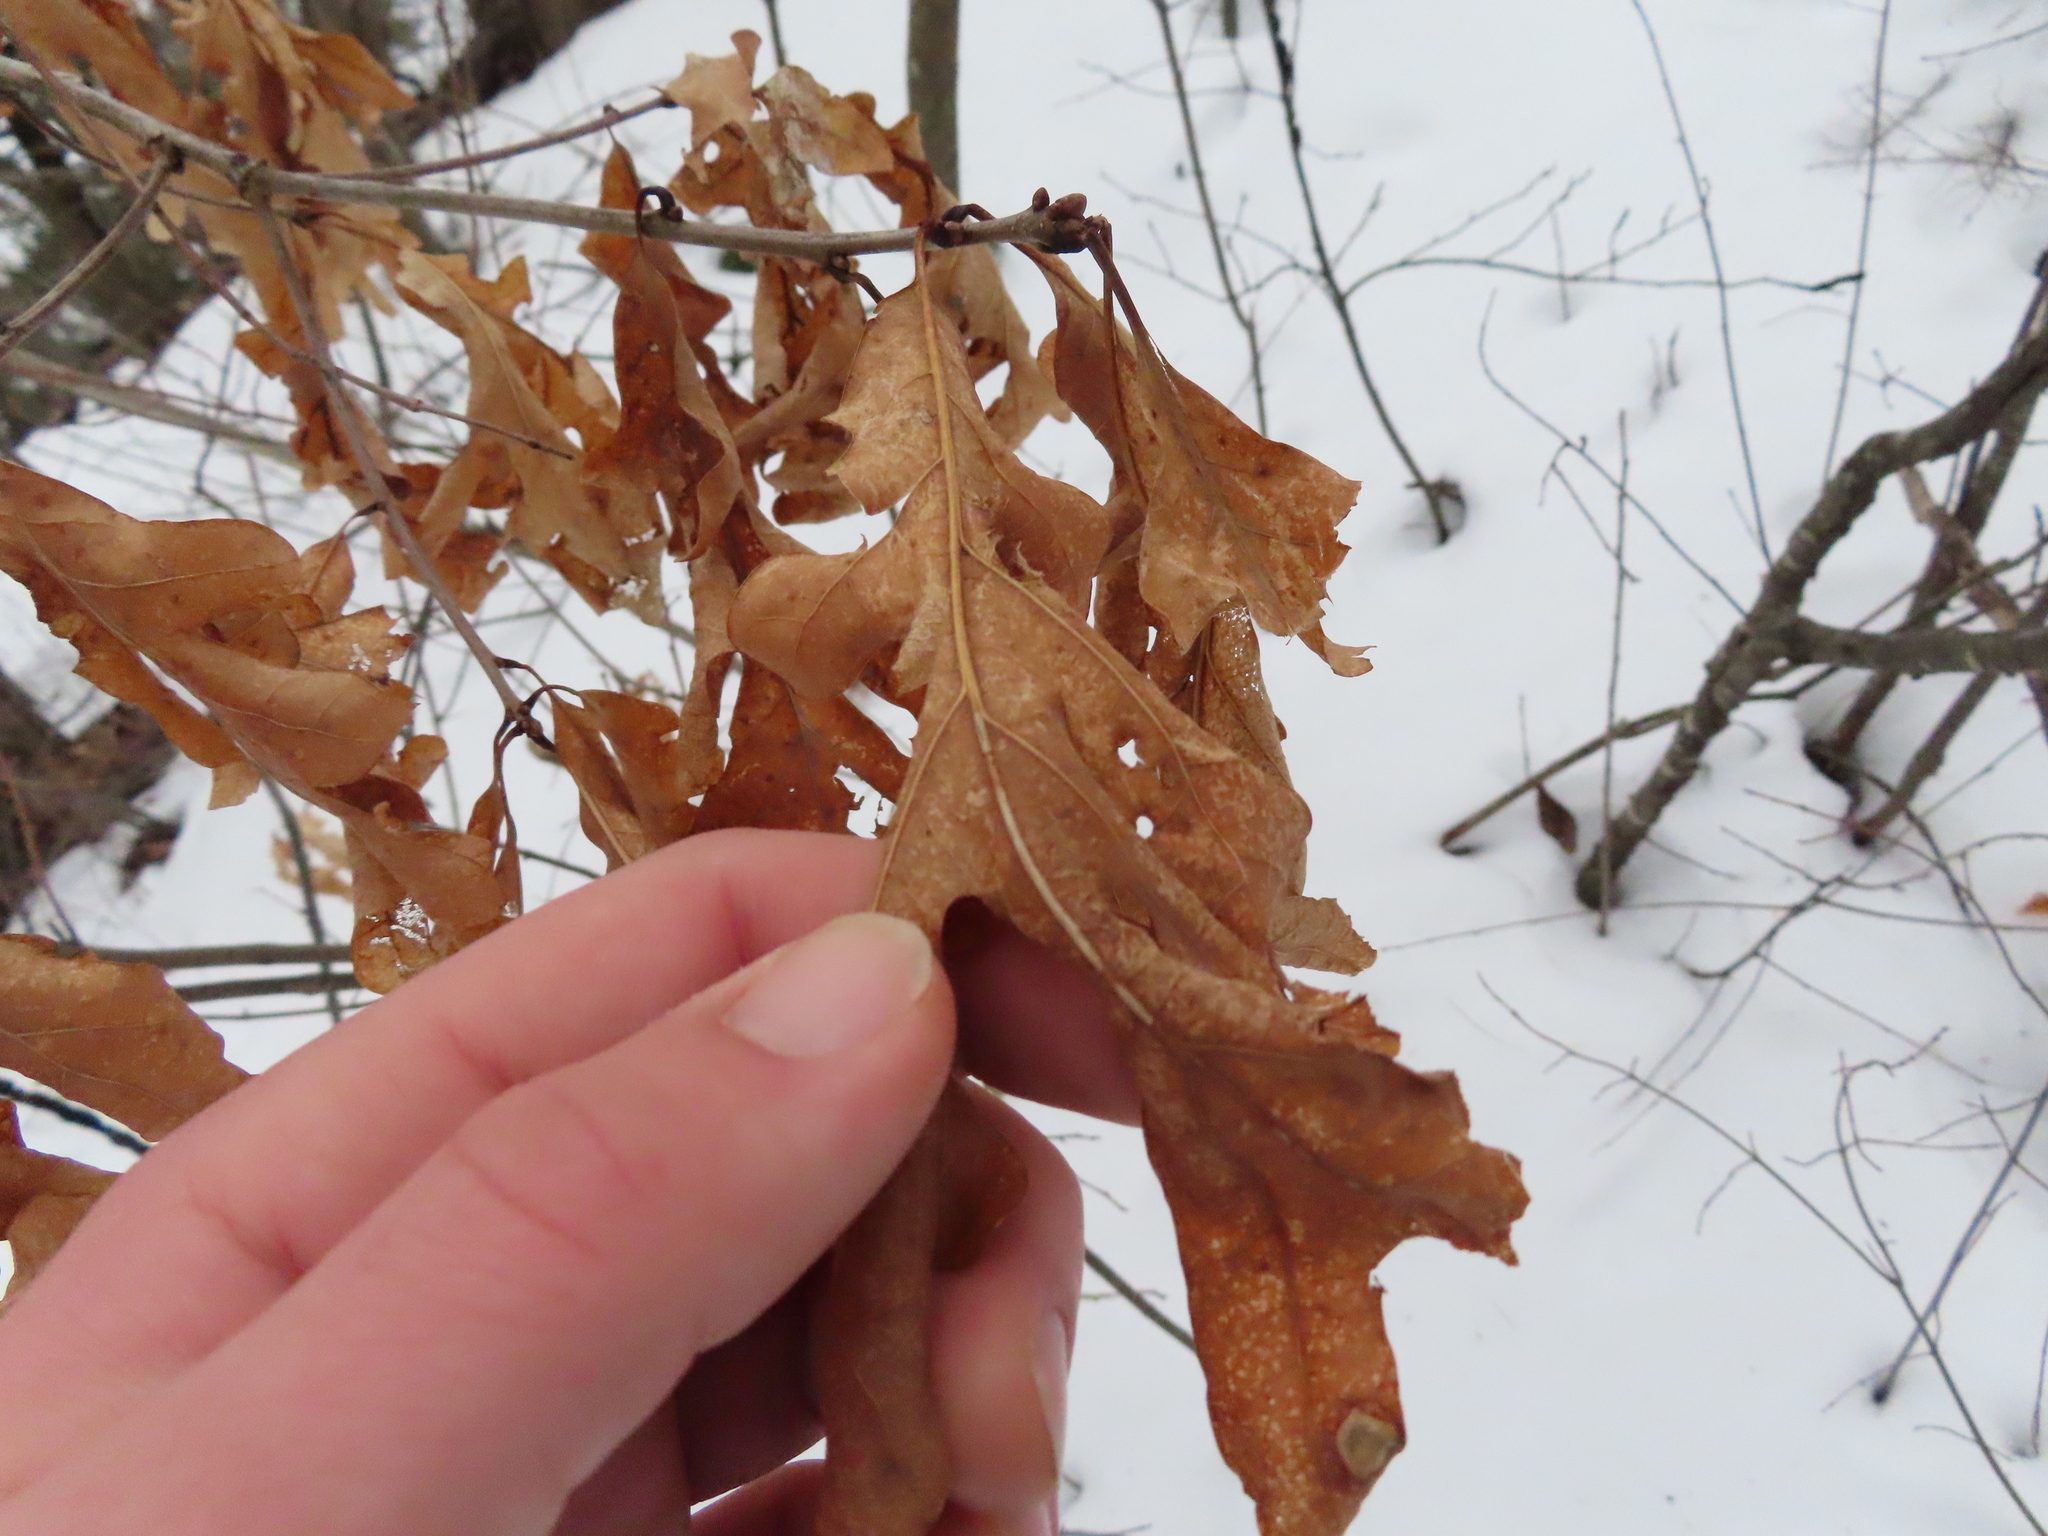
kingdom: Plantae
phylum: Tracheophyta
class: Magnoliopsida
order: Fagales
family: Fagaceae
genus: Quercus
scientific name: Quercus alba
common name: White oak
